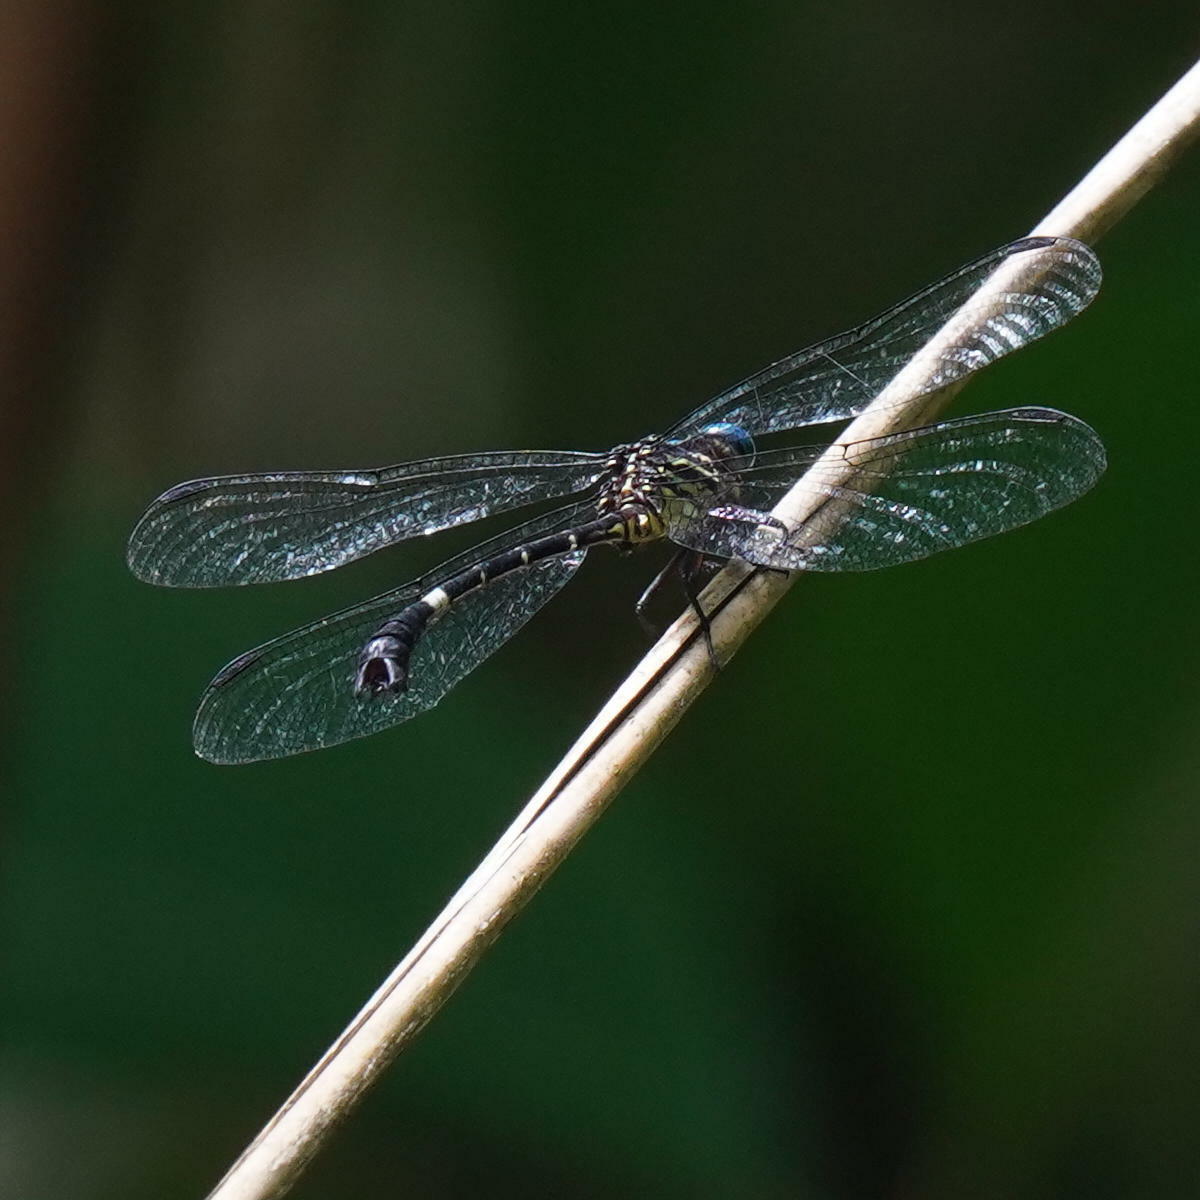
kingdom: Animalia
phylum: Arthropoda
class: Insecta
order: Odonata
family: Gomphidae
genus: Epigomphus
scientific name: Epigomphus quadracies
